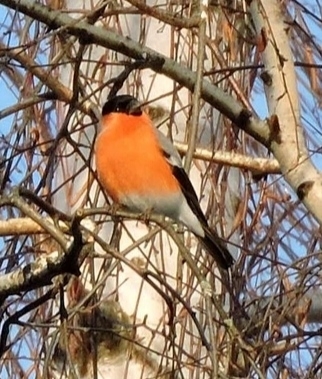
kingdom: Animalia
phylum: Chordata
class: Aves
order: Passeriformes
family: Fringillidae
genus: Pyrrhula
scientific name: Pyrrhula pyrrhula
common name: Eurasian bullfinch
